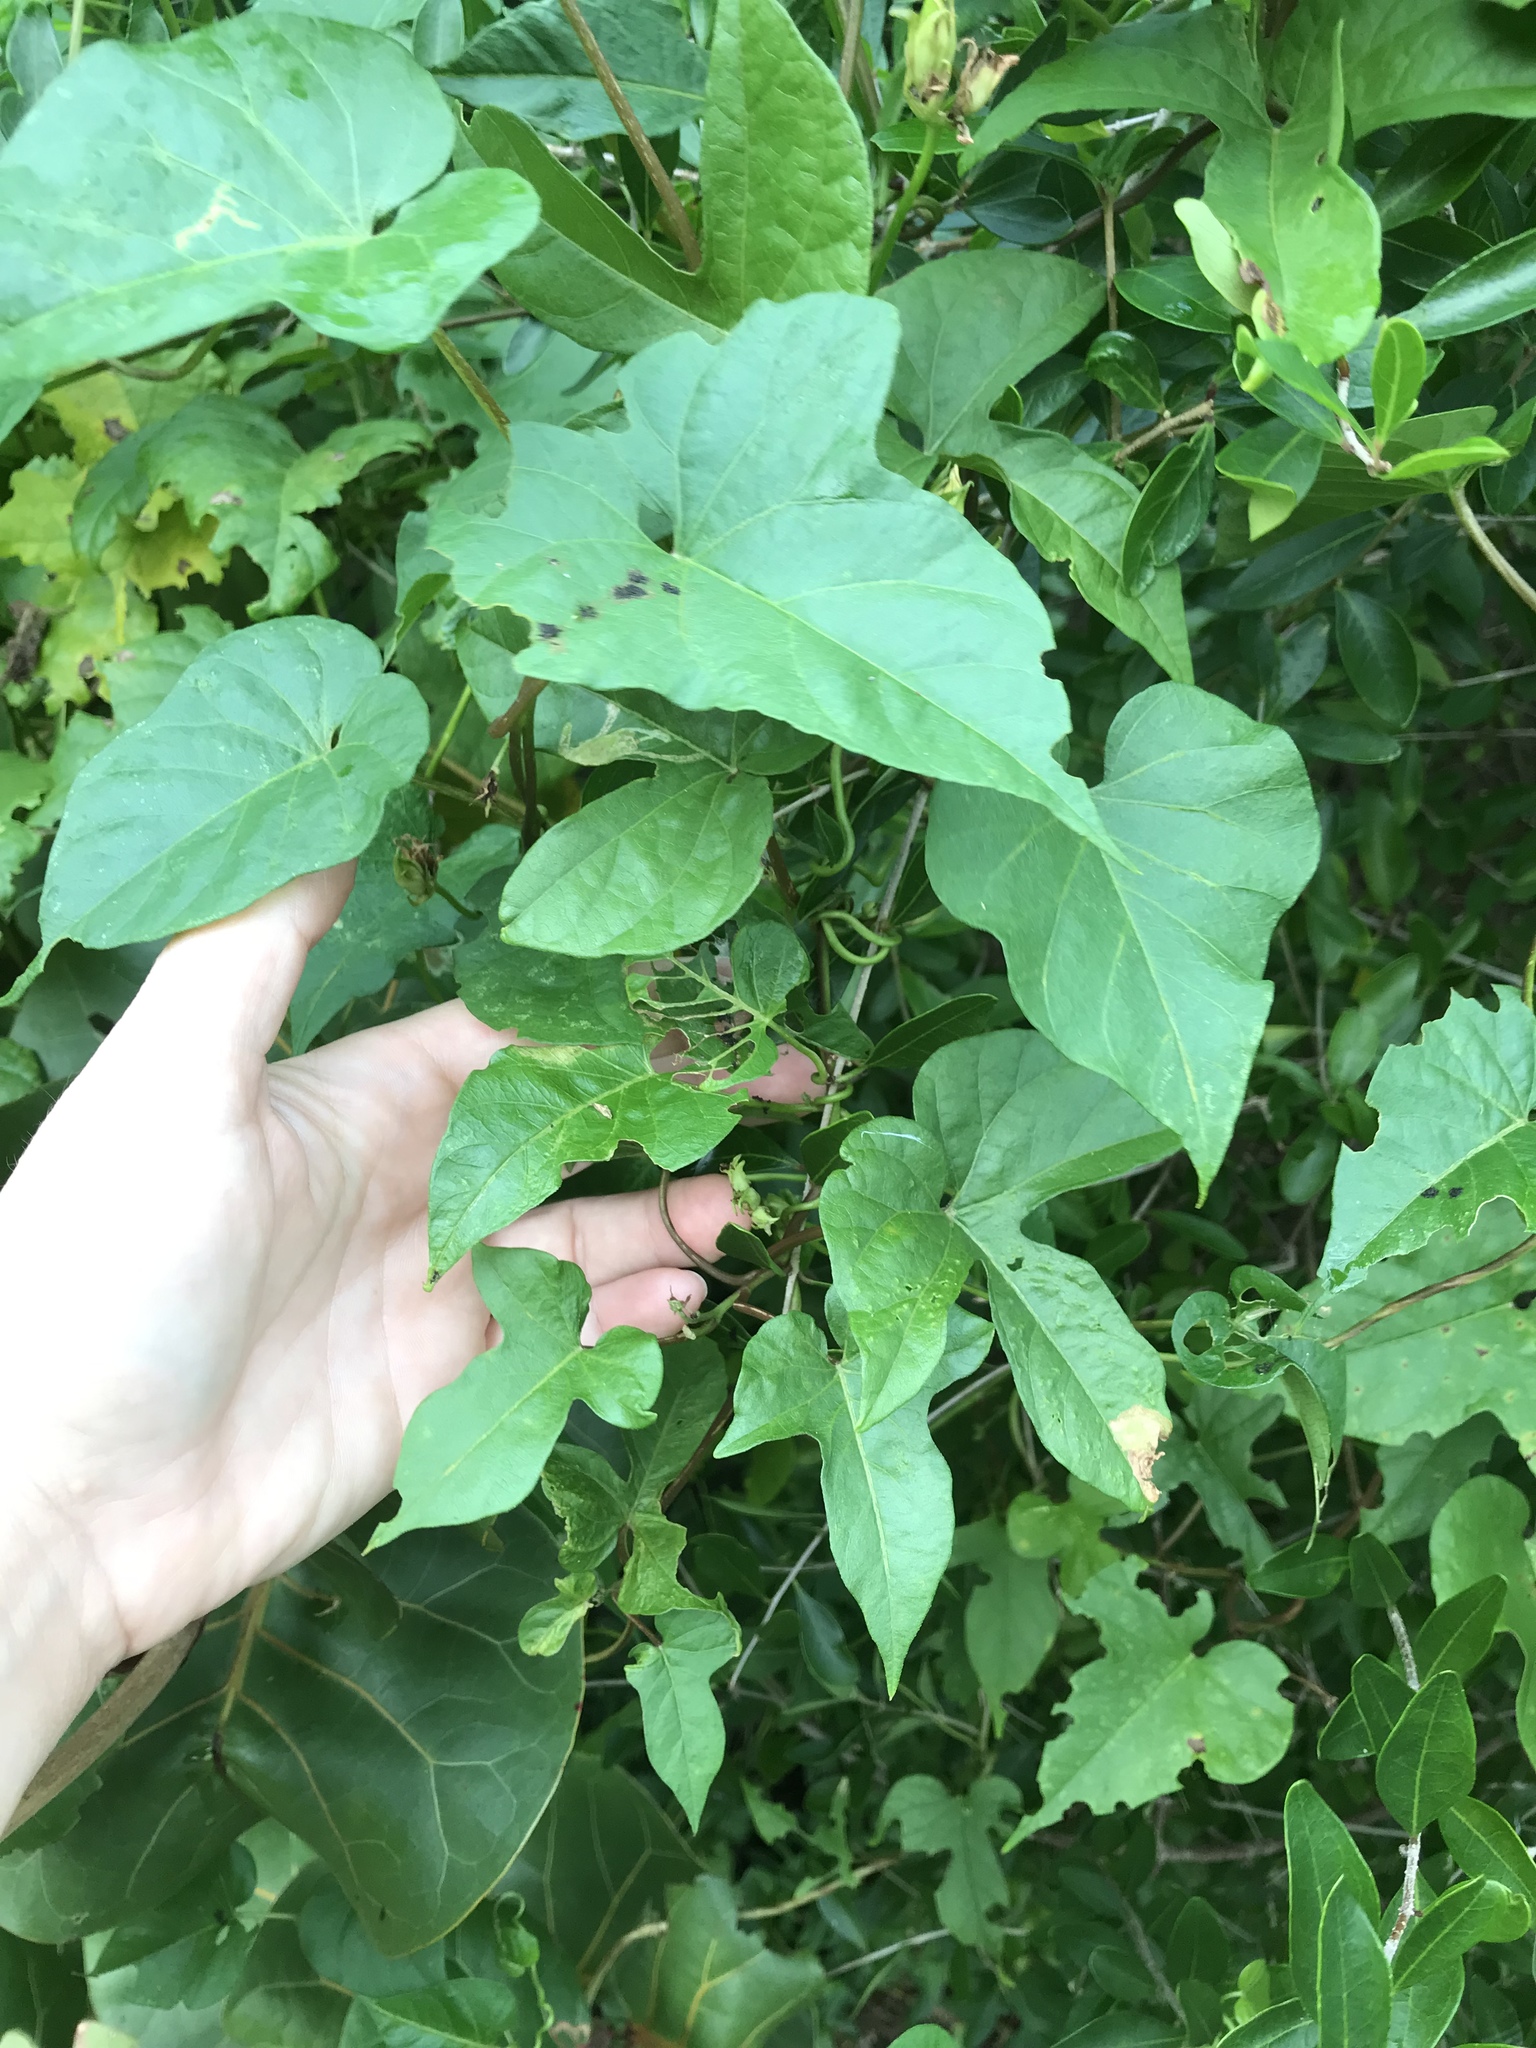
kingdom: Plantae
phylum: Tracheophyta
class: Magnoliopsida
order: Solanales
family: Convolvulaceae
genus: Ipomoea
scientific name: Ipomoea indica
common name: Blue dawnflower
